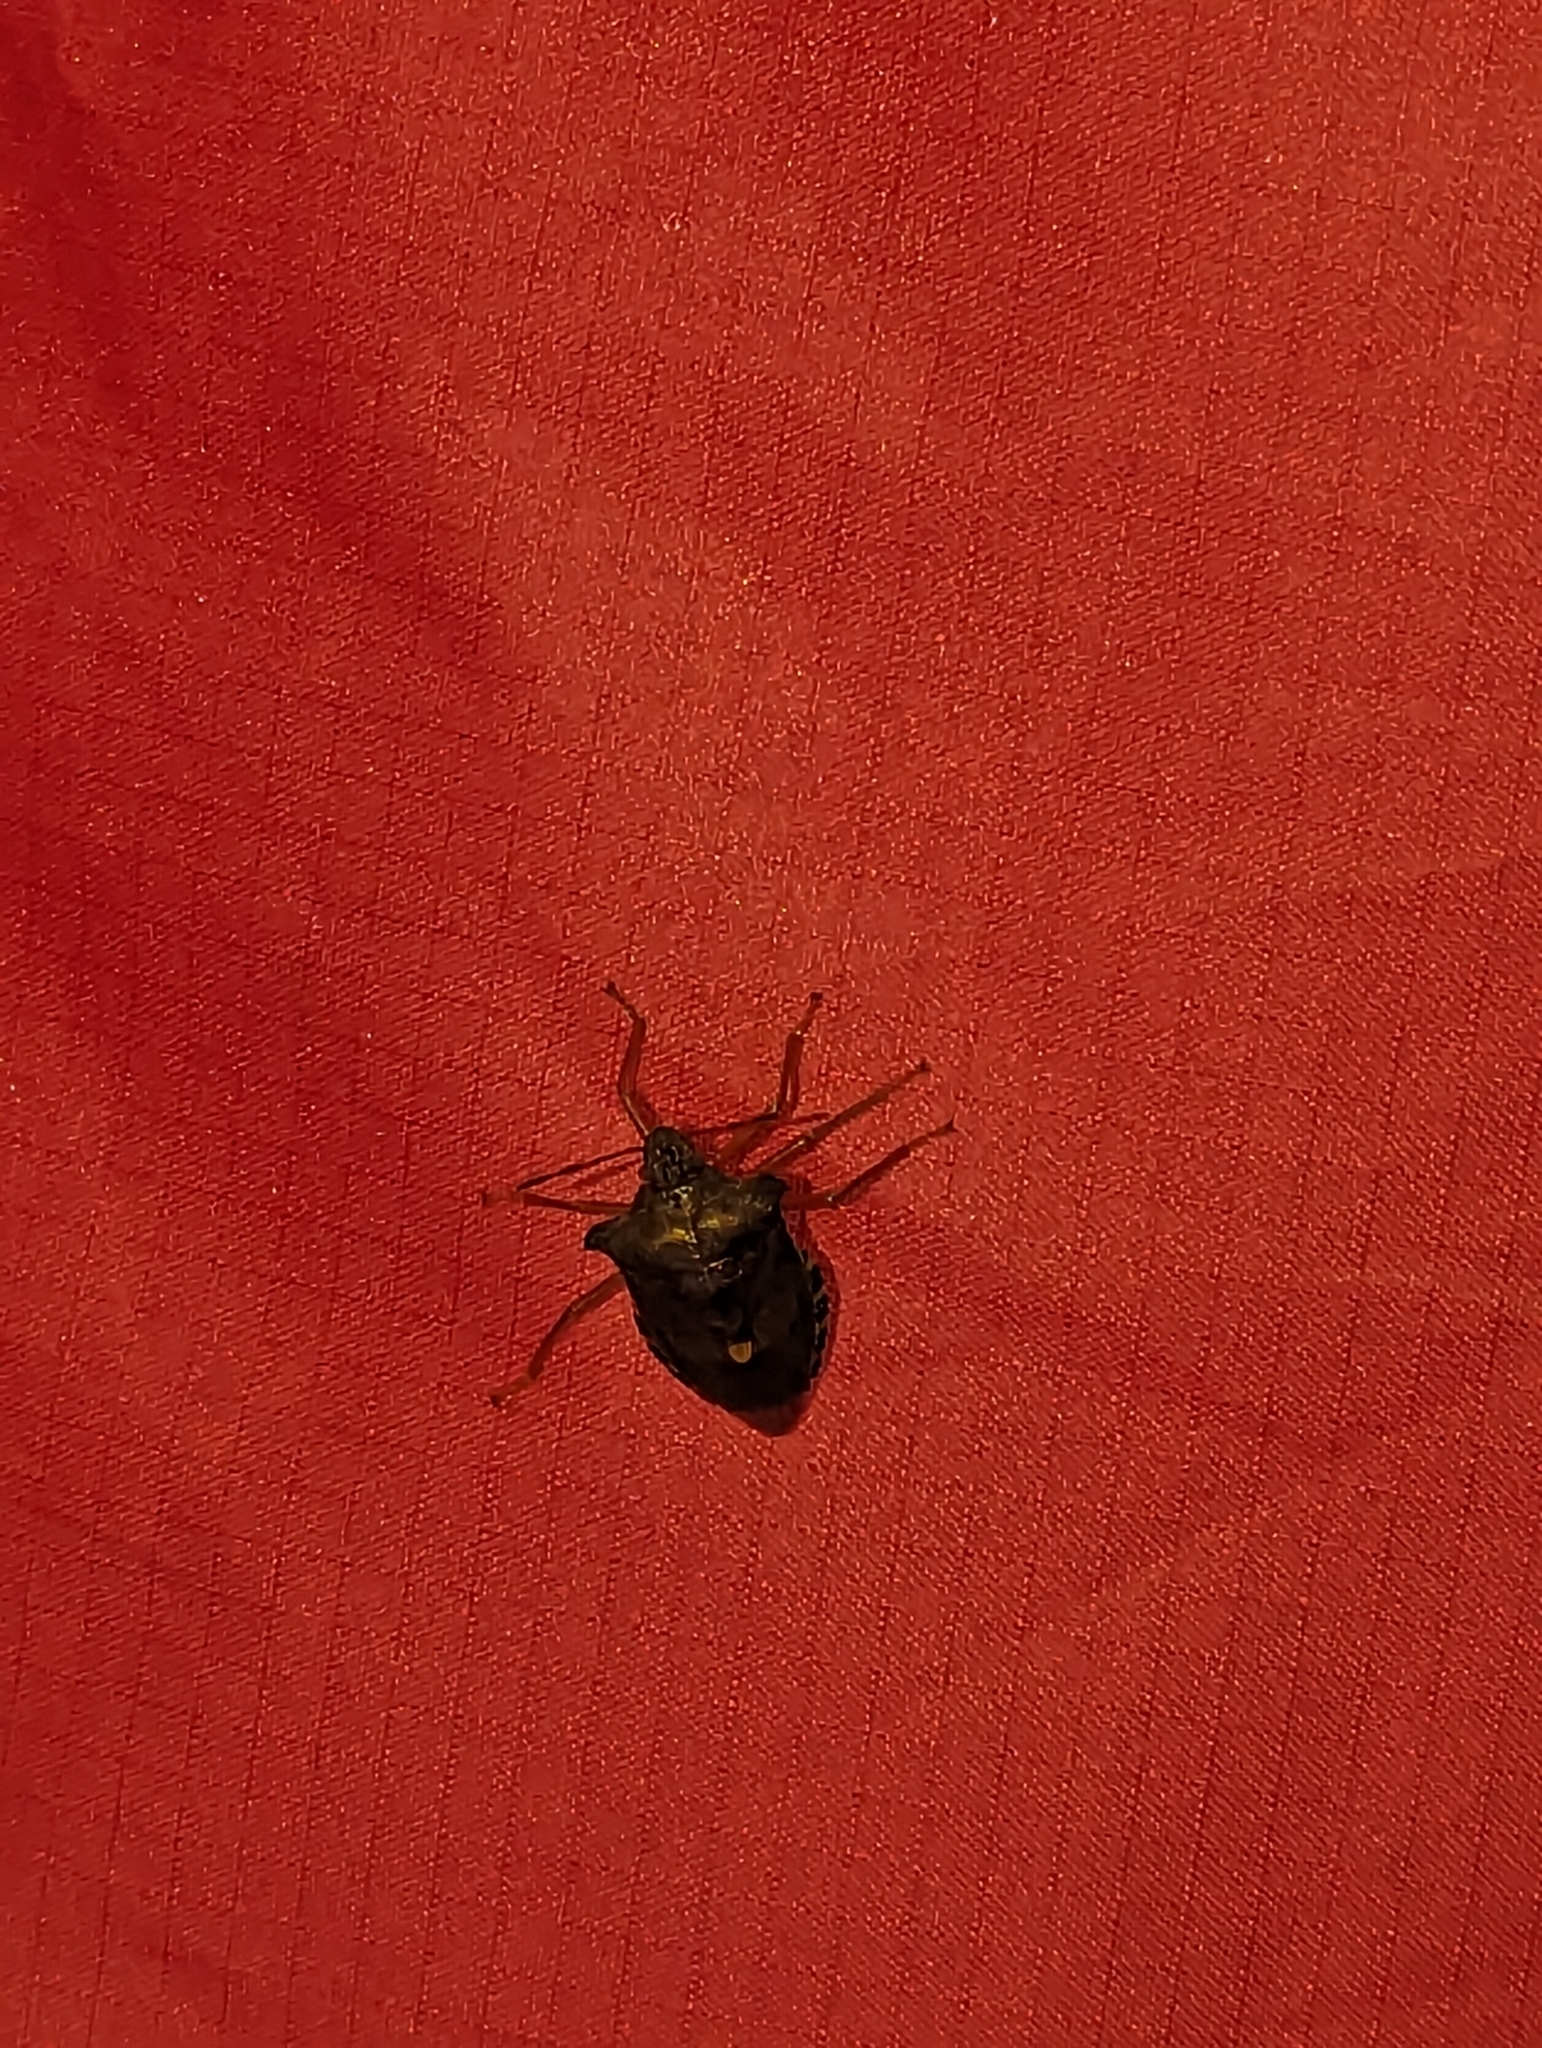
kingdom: Animalia
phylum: Arthropoda
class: Insecta
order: Hemiptera
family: Pentatomidae
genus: Pentatoma
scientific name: Pentatoma rufipes
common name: Forest bug
